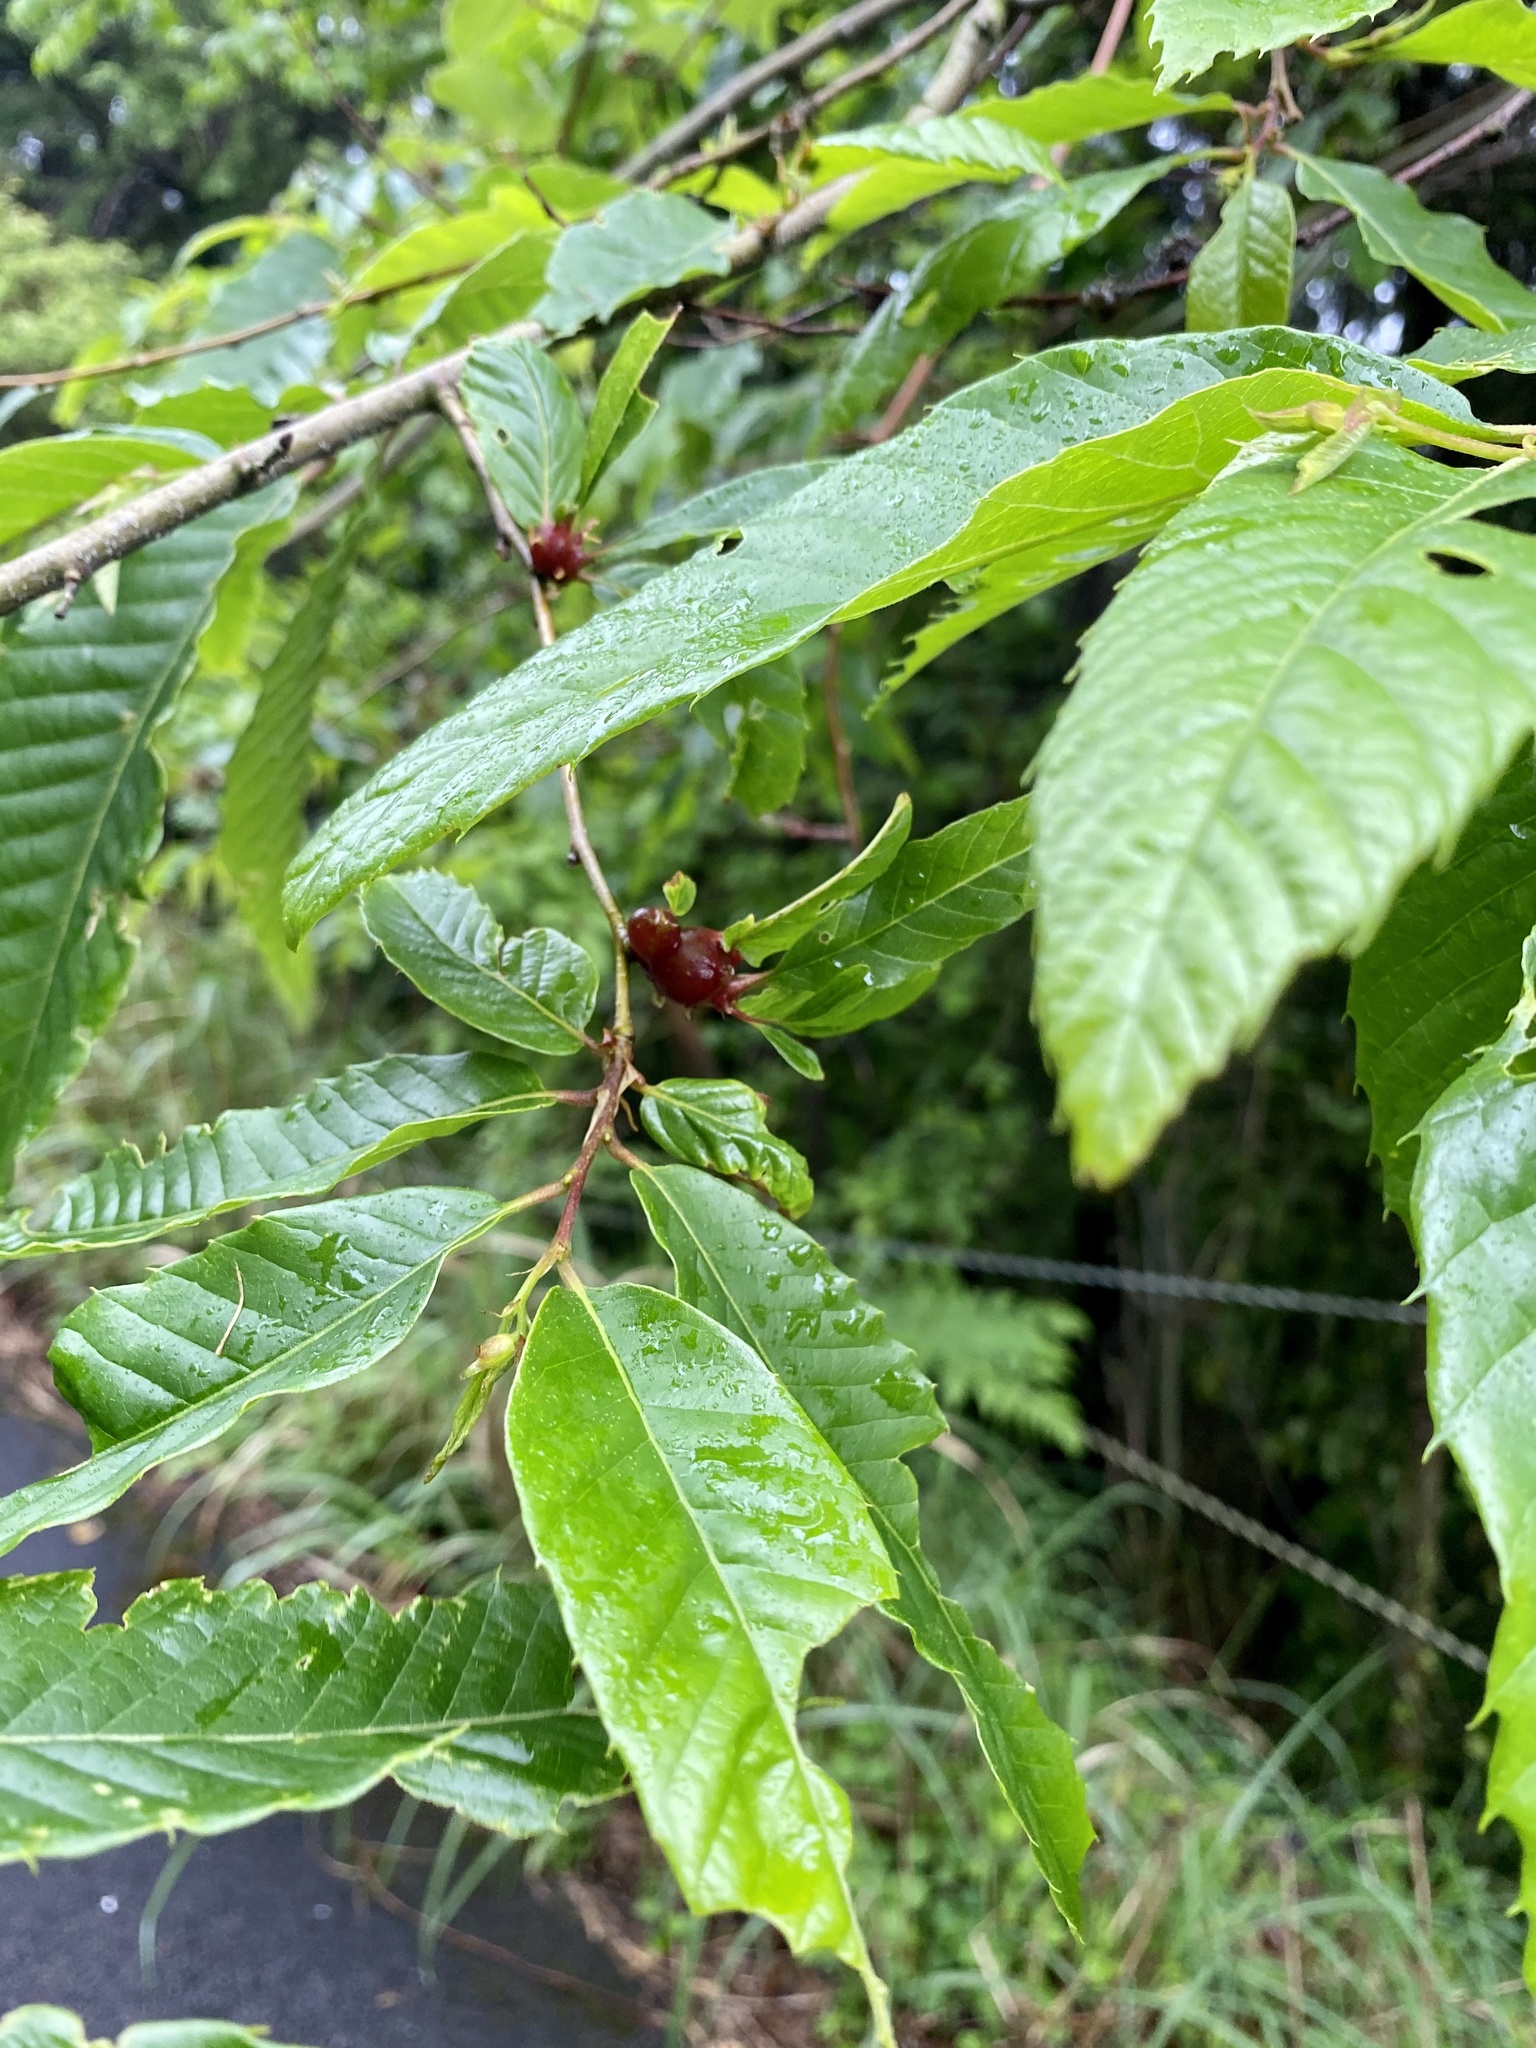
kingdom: Plantae
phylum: Tracheophyta
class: Magnoliopsida
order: Fagales
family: Fagaceae
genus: Castanea
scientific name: Castanea crenata
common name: Japanese chestnut
